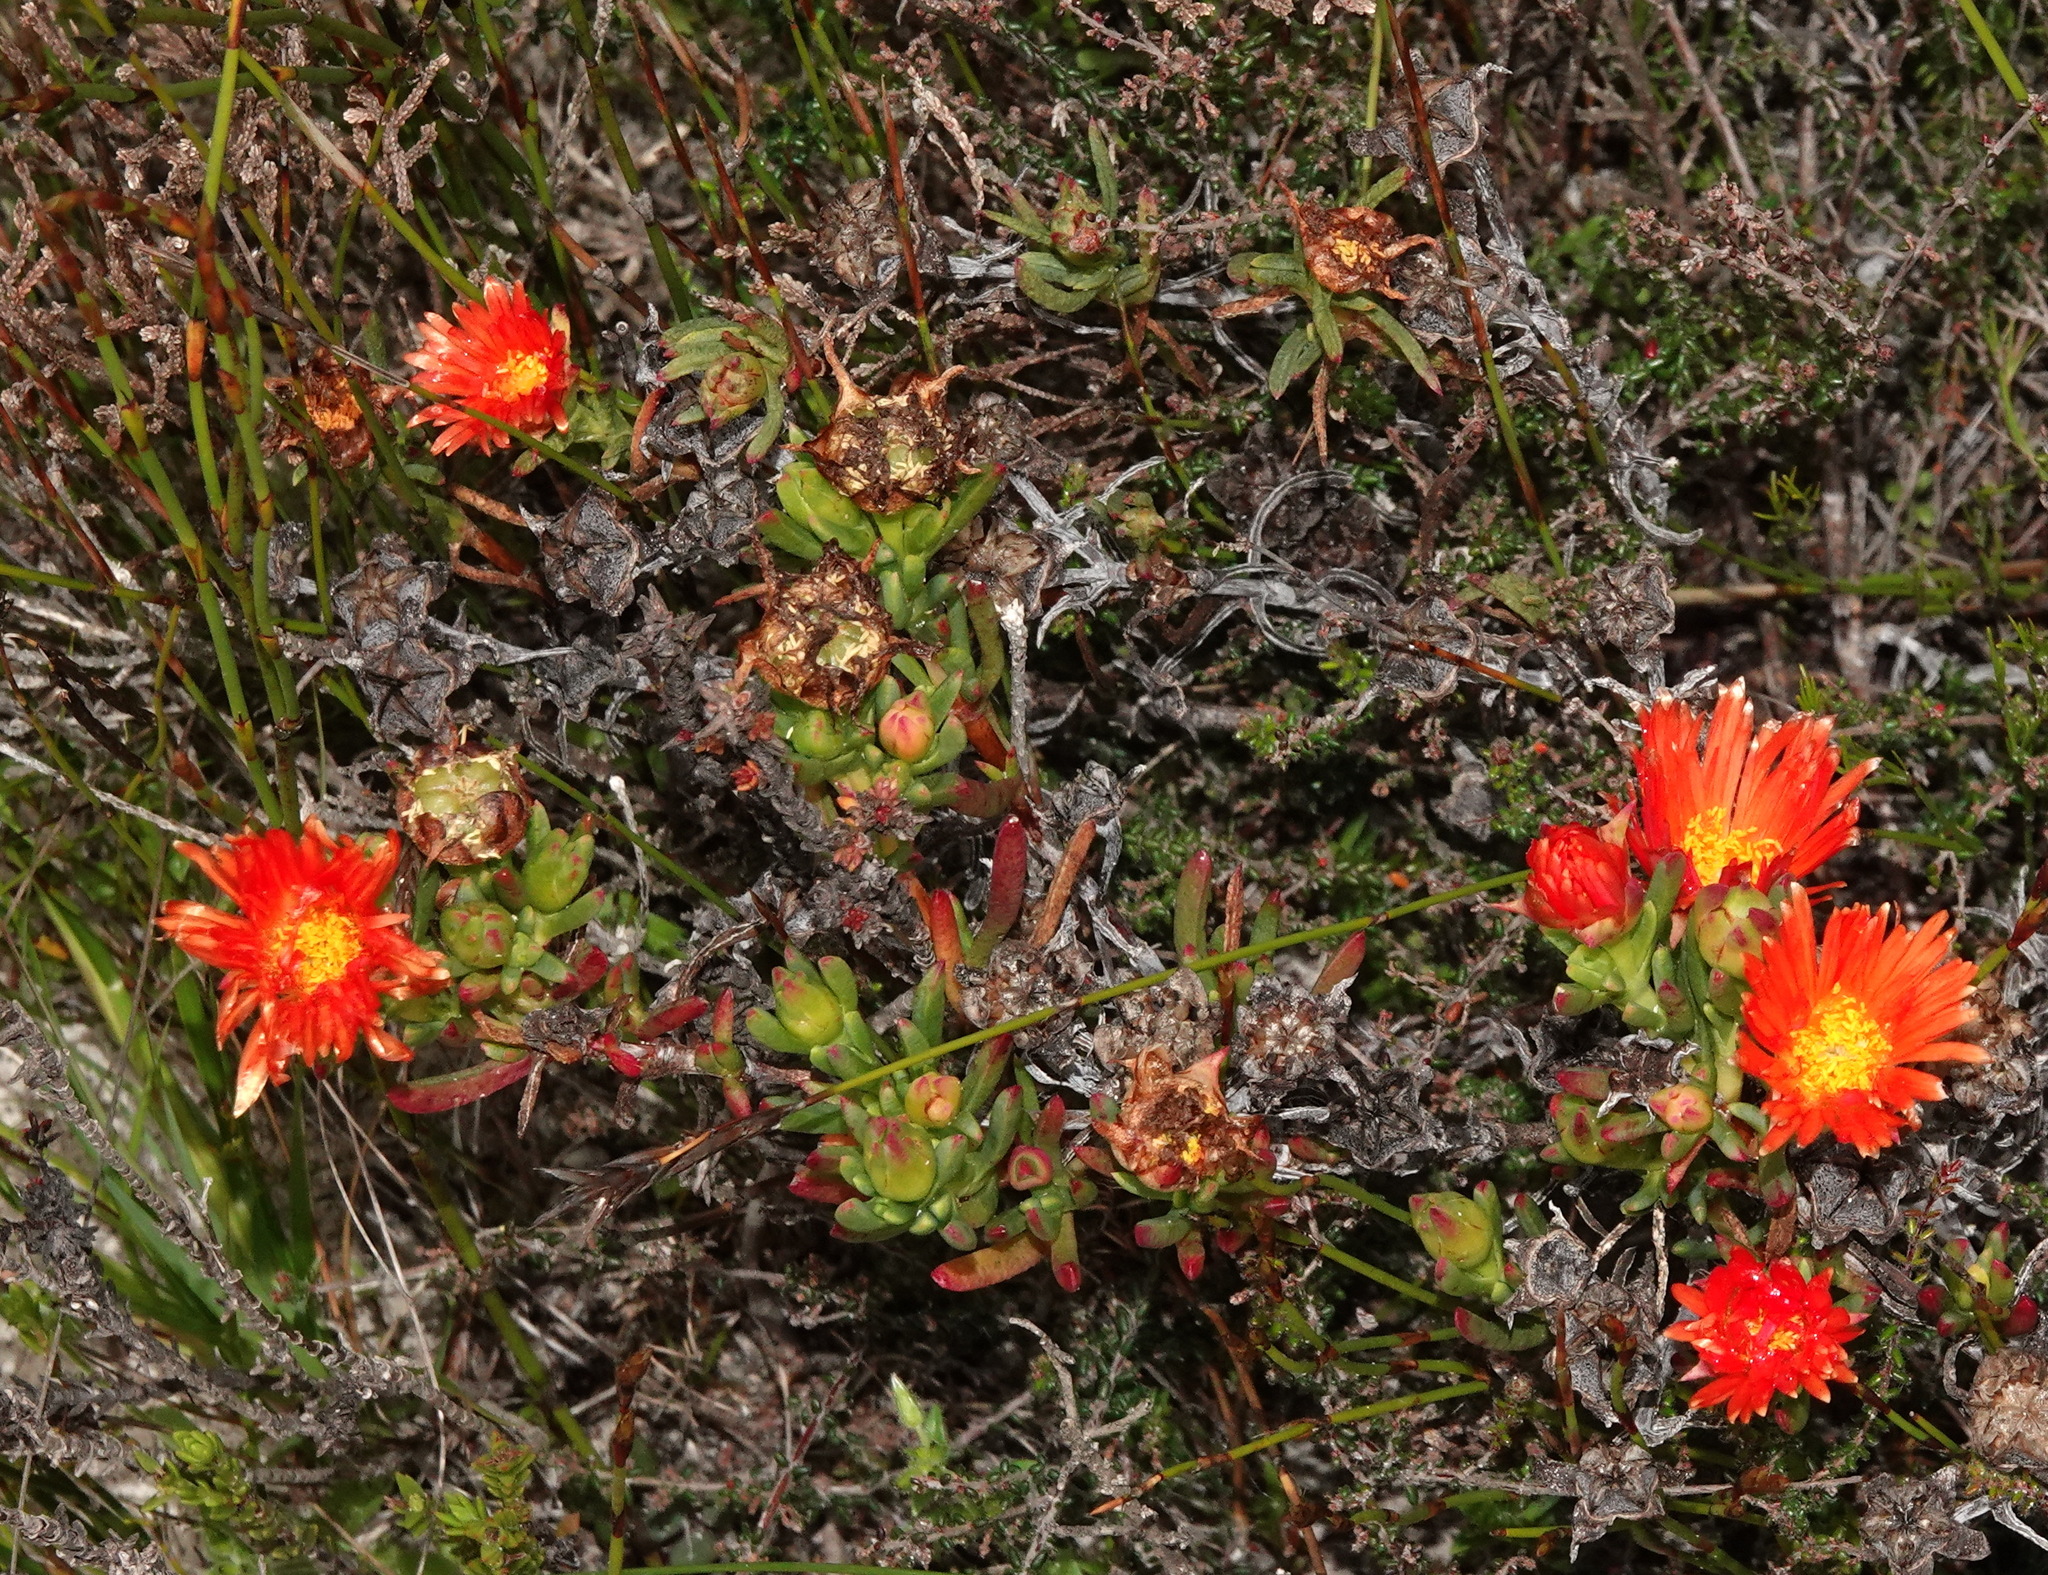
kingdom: Plantae
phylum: Tracheophyta
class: Magnoliopsida
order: Caryophyllales
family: Aizoaceae
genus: Lampranthus
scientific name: Lampranthus fergusoniae
